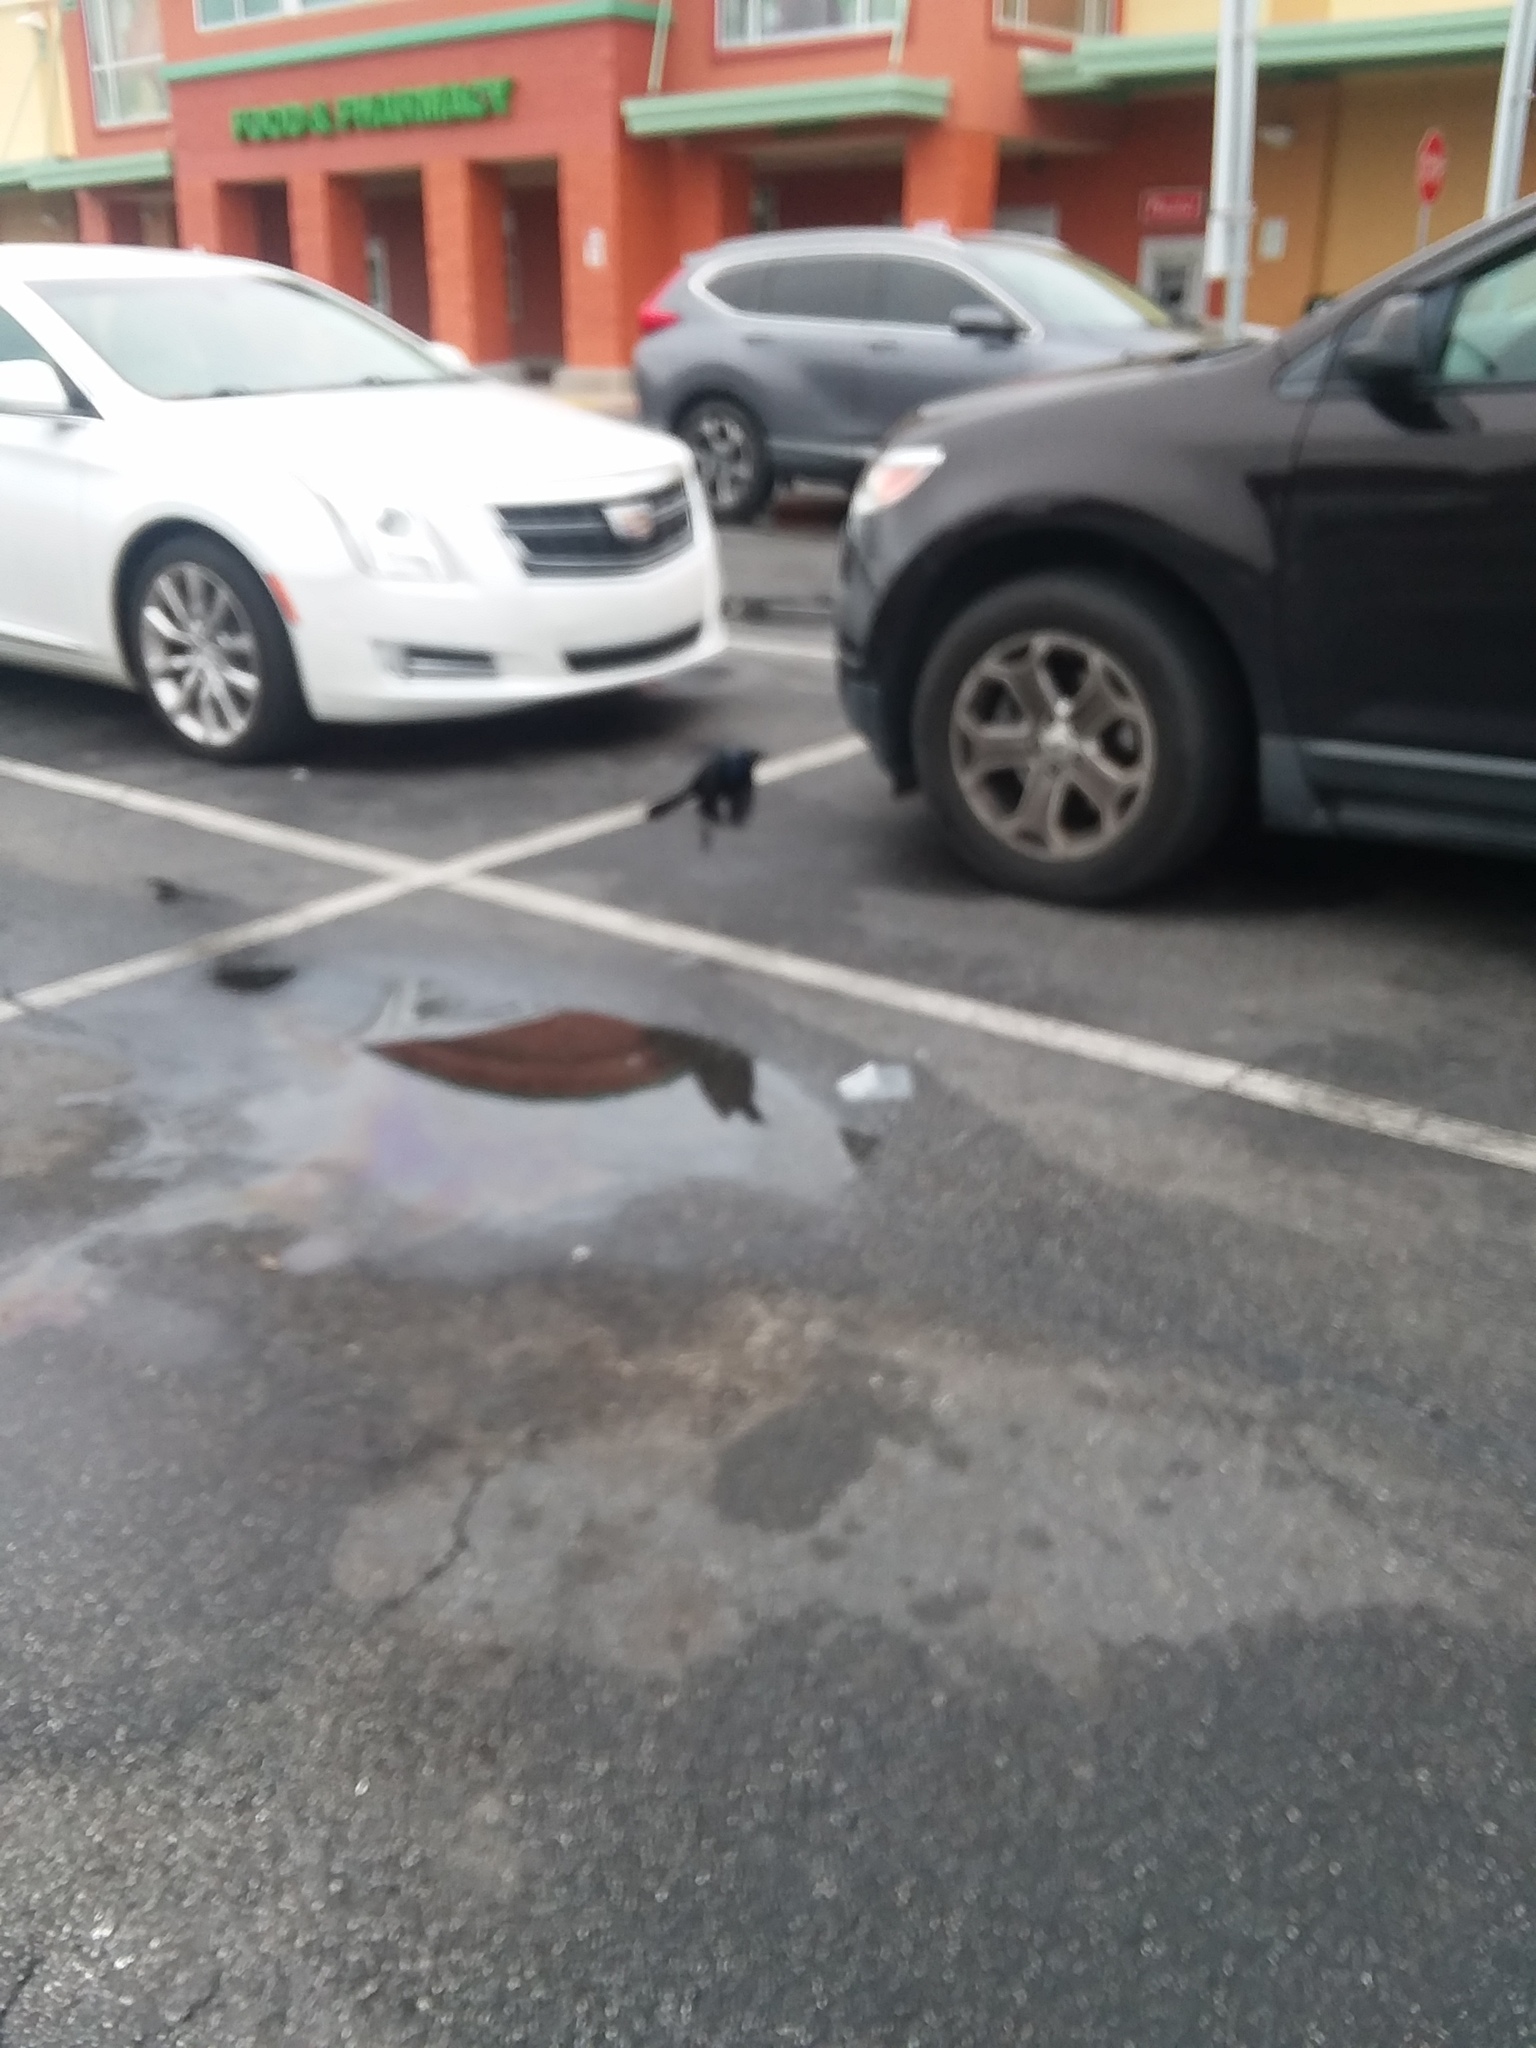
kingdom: Animalia
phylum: Chordata
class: Aves
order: Passeriformes
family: Icteridae
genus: Quiscalus
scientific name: Quiscalus major
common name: Boat-tailed grackle
